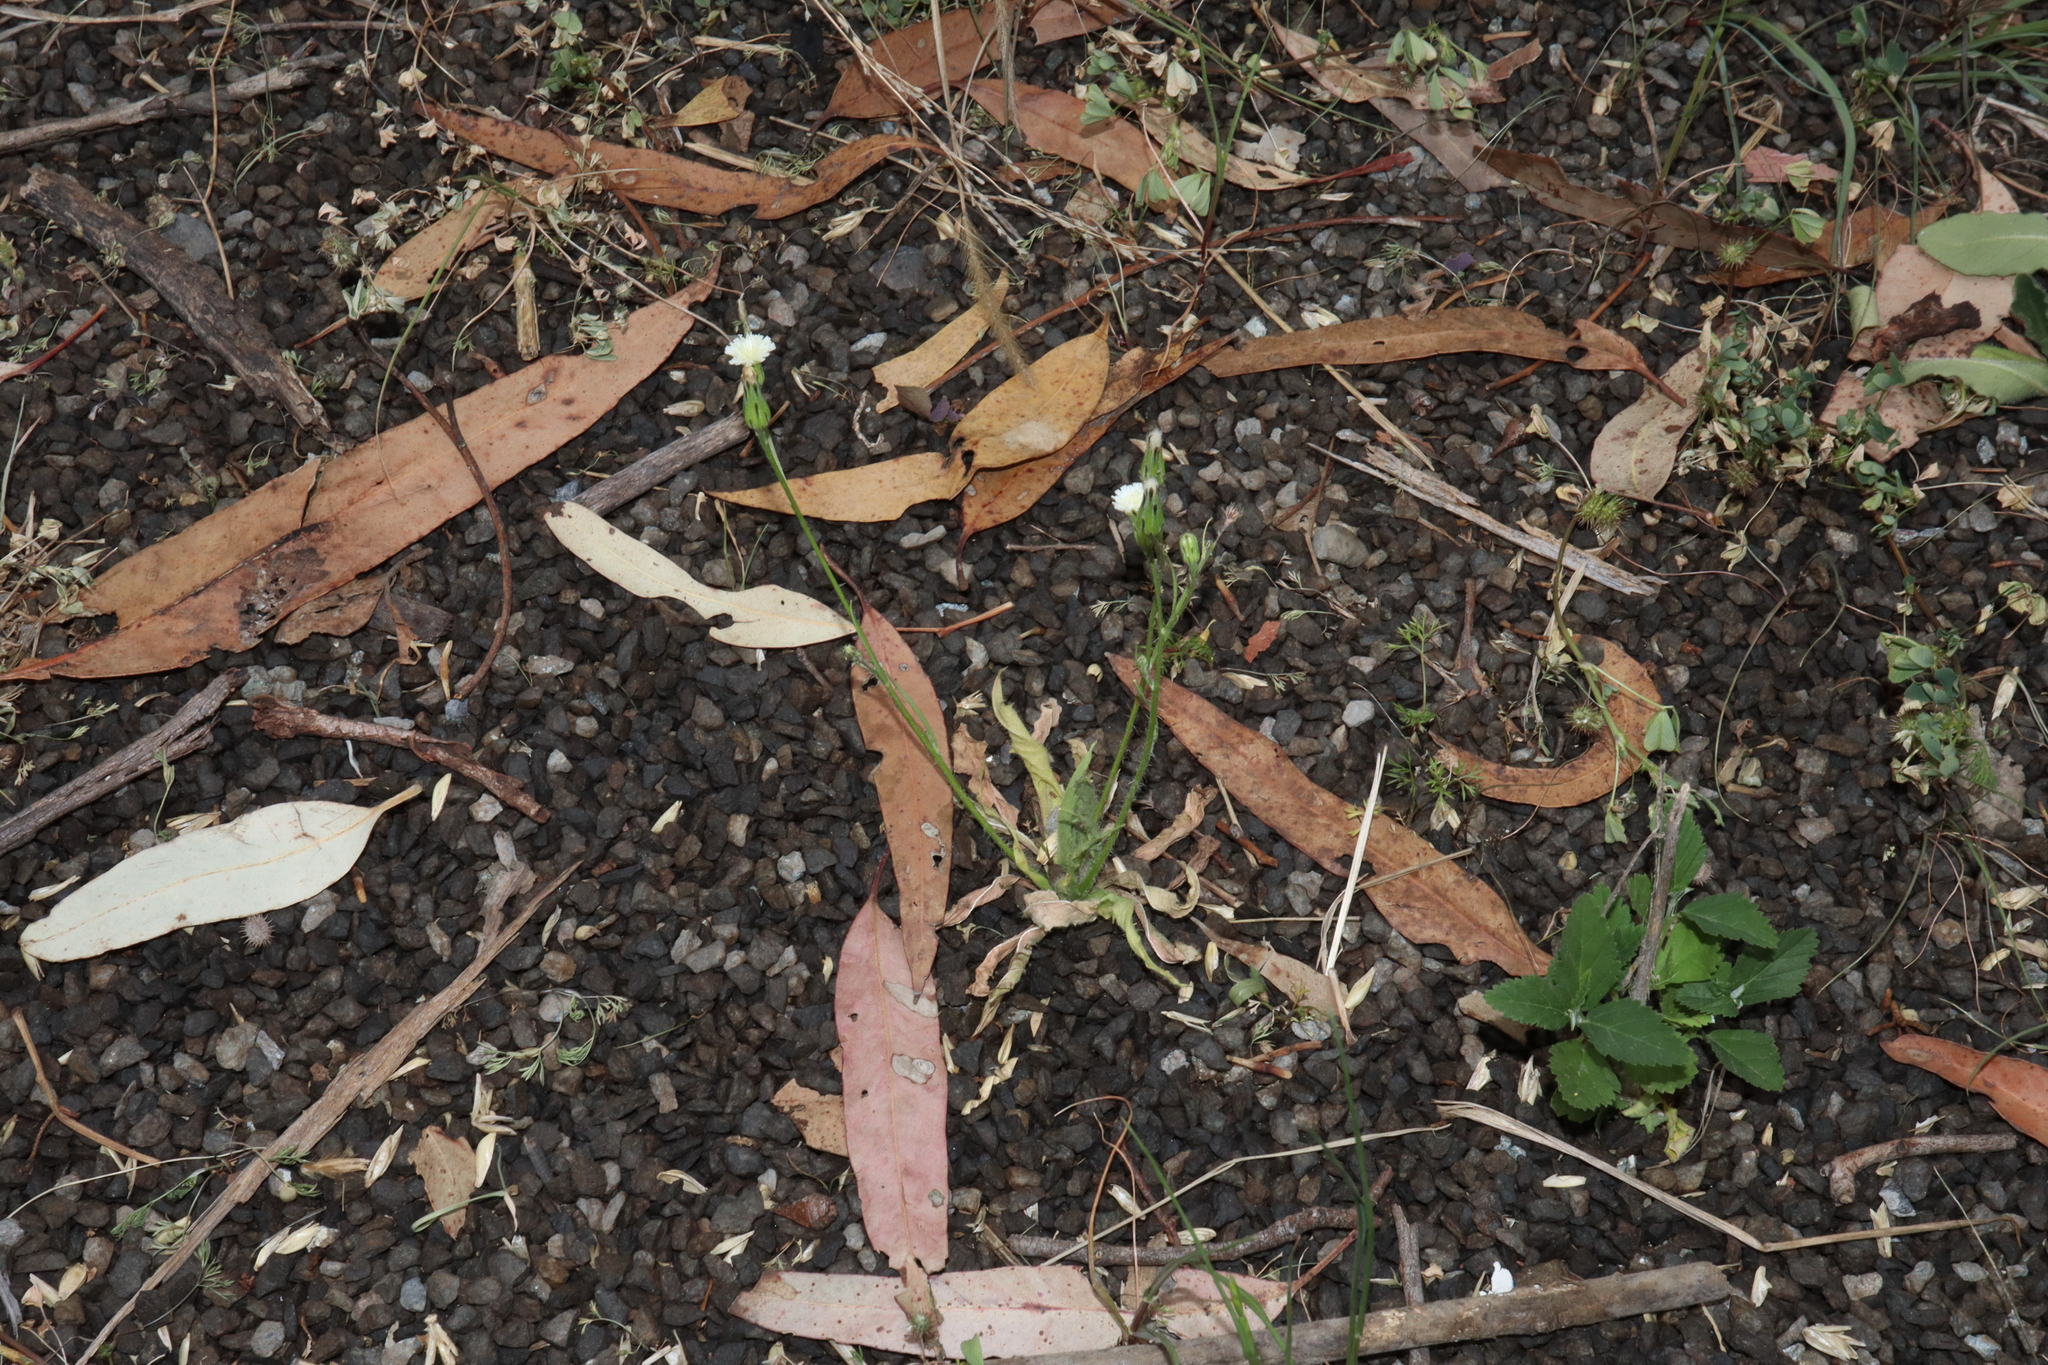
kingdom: Plantae
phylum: Tracheophyta
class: Magnoliopsida
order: Asterales
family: Asteraceae
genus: Hypochaeris
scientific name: Hypochaeris albiflora
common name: White flatweed
